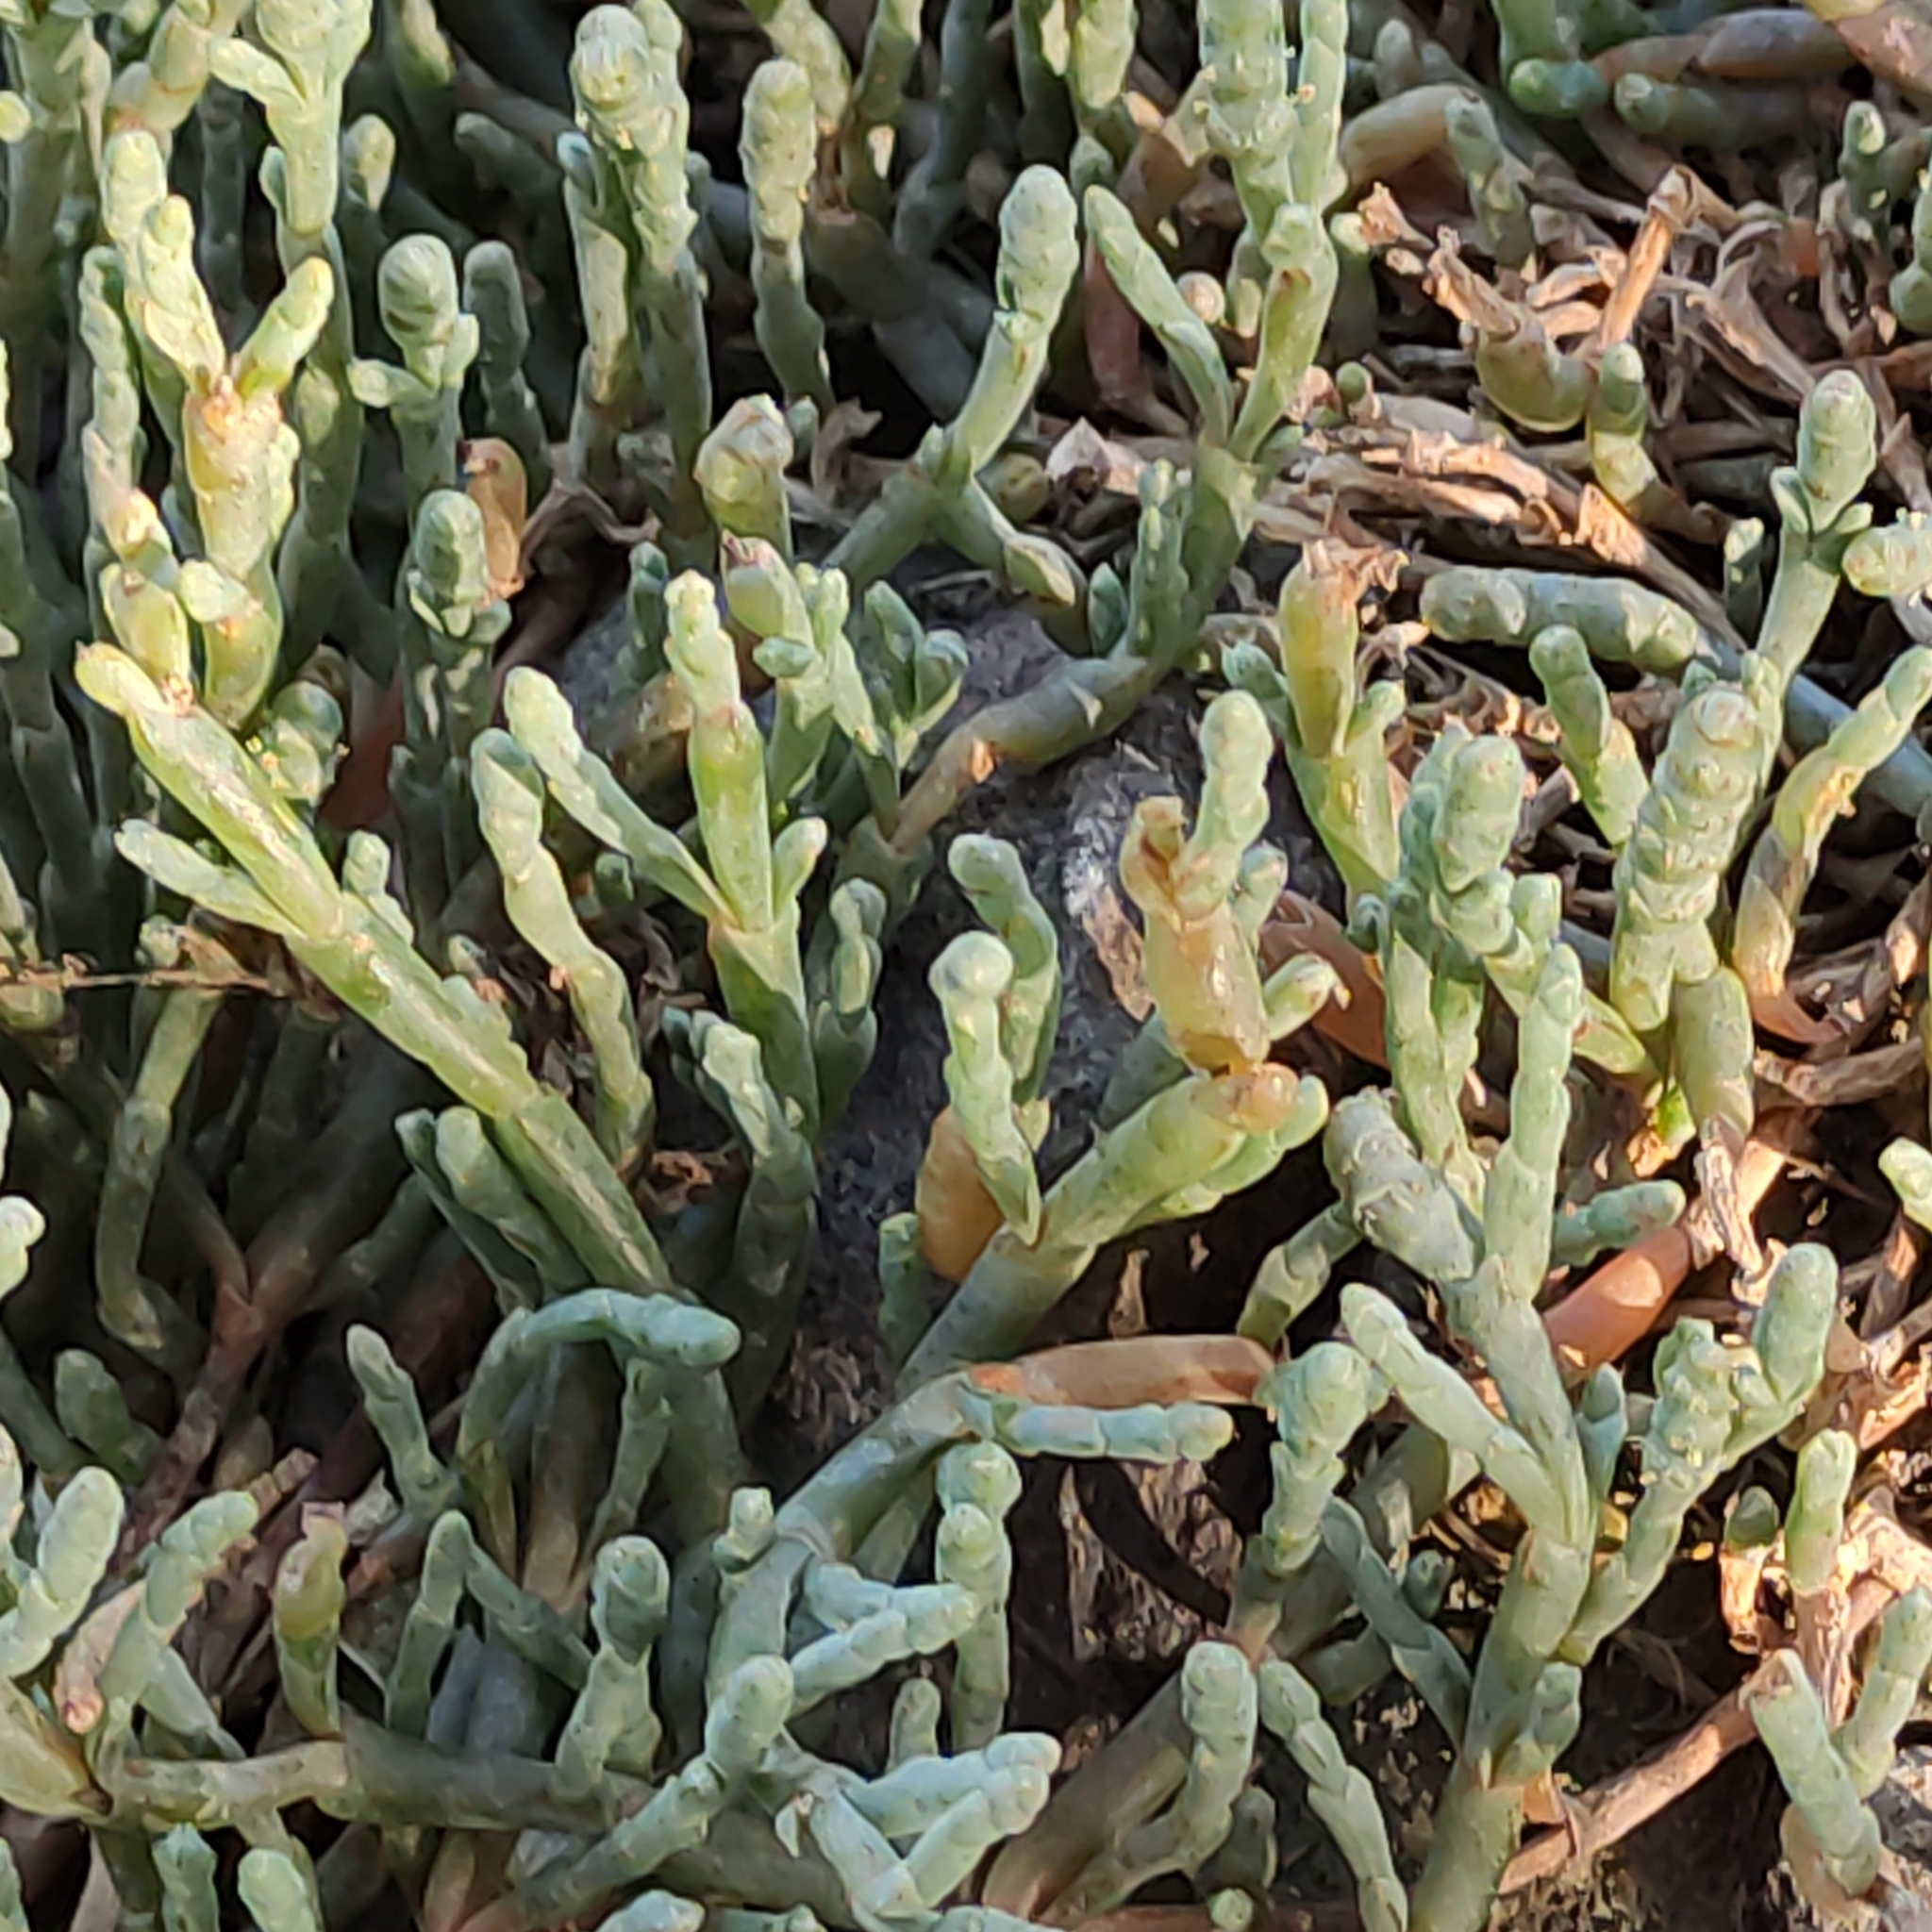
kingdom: Plantae
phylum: Tracheophyta
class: Magnoliopsida
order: Caryophyllales
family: Amaranthaceae
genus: Salicornia
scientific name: Salicornia quinqueflora
